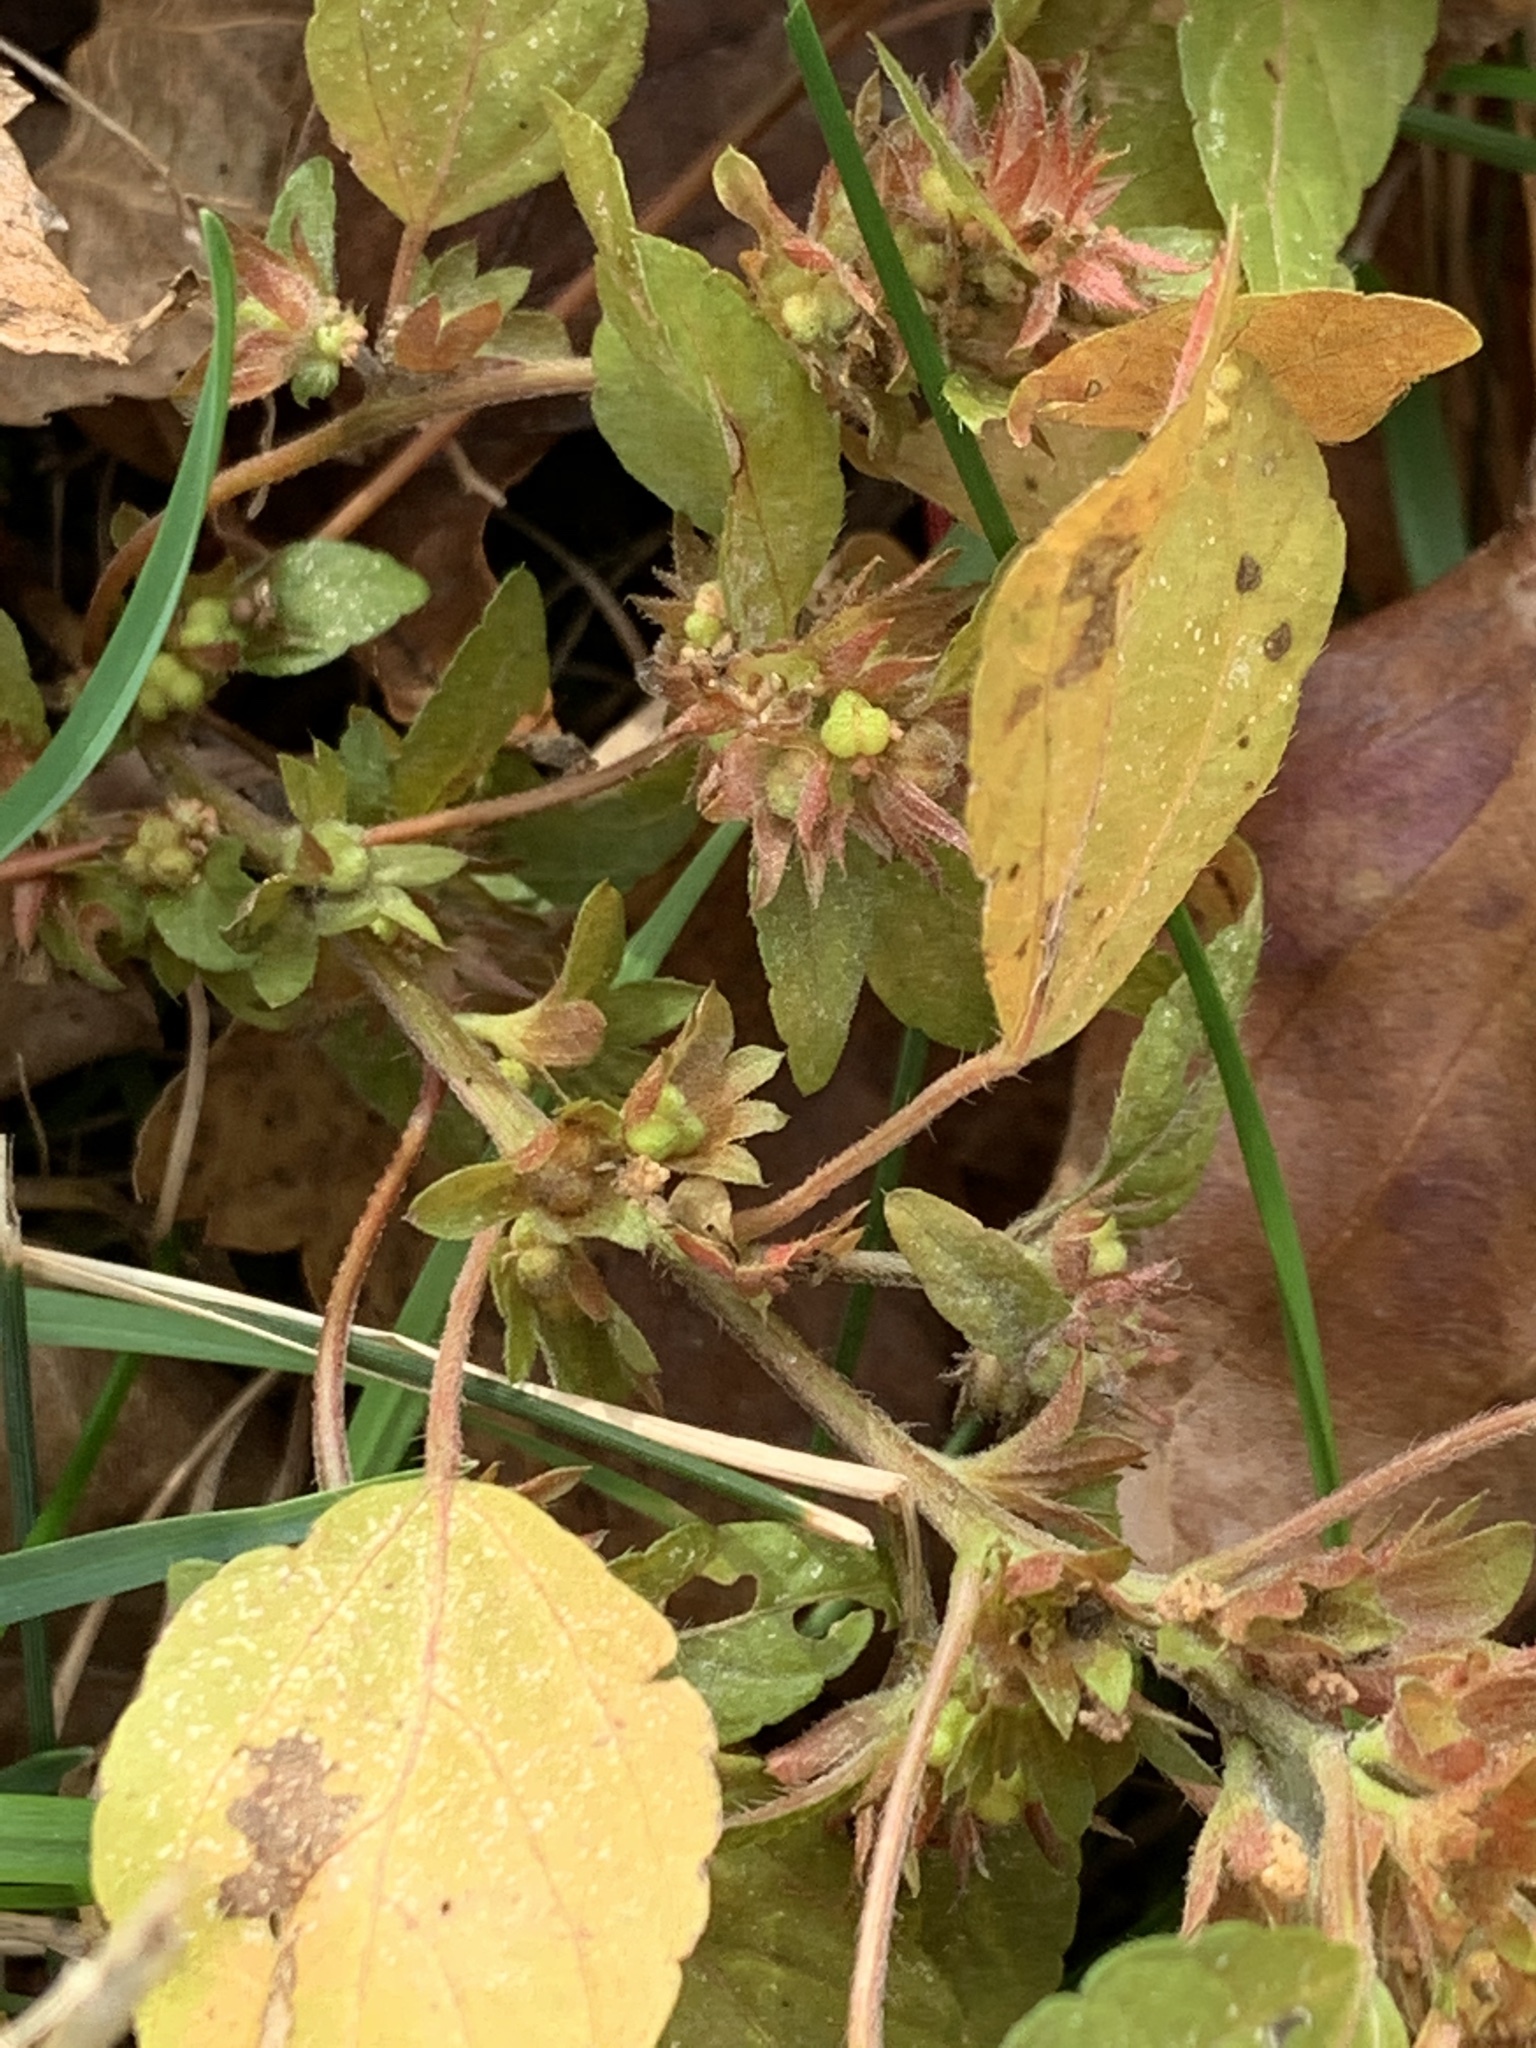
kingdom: Plantae
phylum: Tracheophyta
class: Magnoliopsida
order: Malpighiales
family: Euphorbiaceae
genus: Acalypha
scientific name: Acalypha rhomboidea
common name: Rhombic copperleaf
